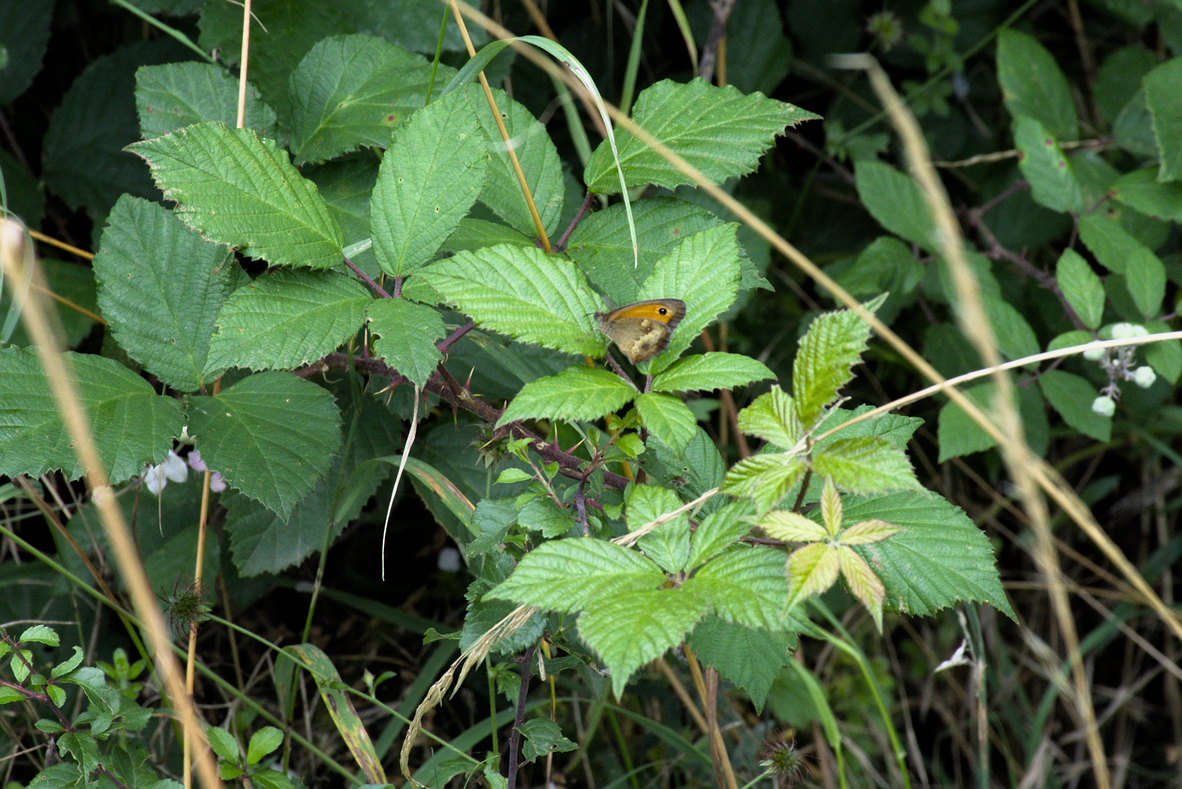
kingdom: Animalia
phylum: Arthropoda
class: Insecta
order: Lepidoptera
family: Nymphalidae
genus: Pyronia
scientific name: Pyronia tithonus
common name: Gatekeeper
